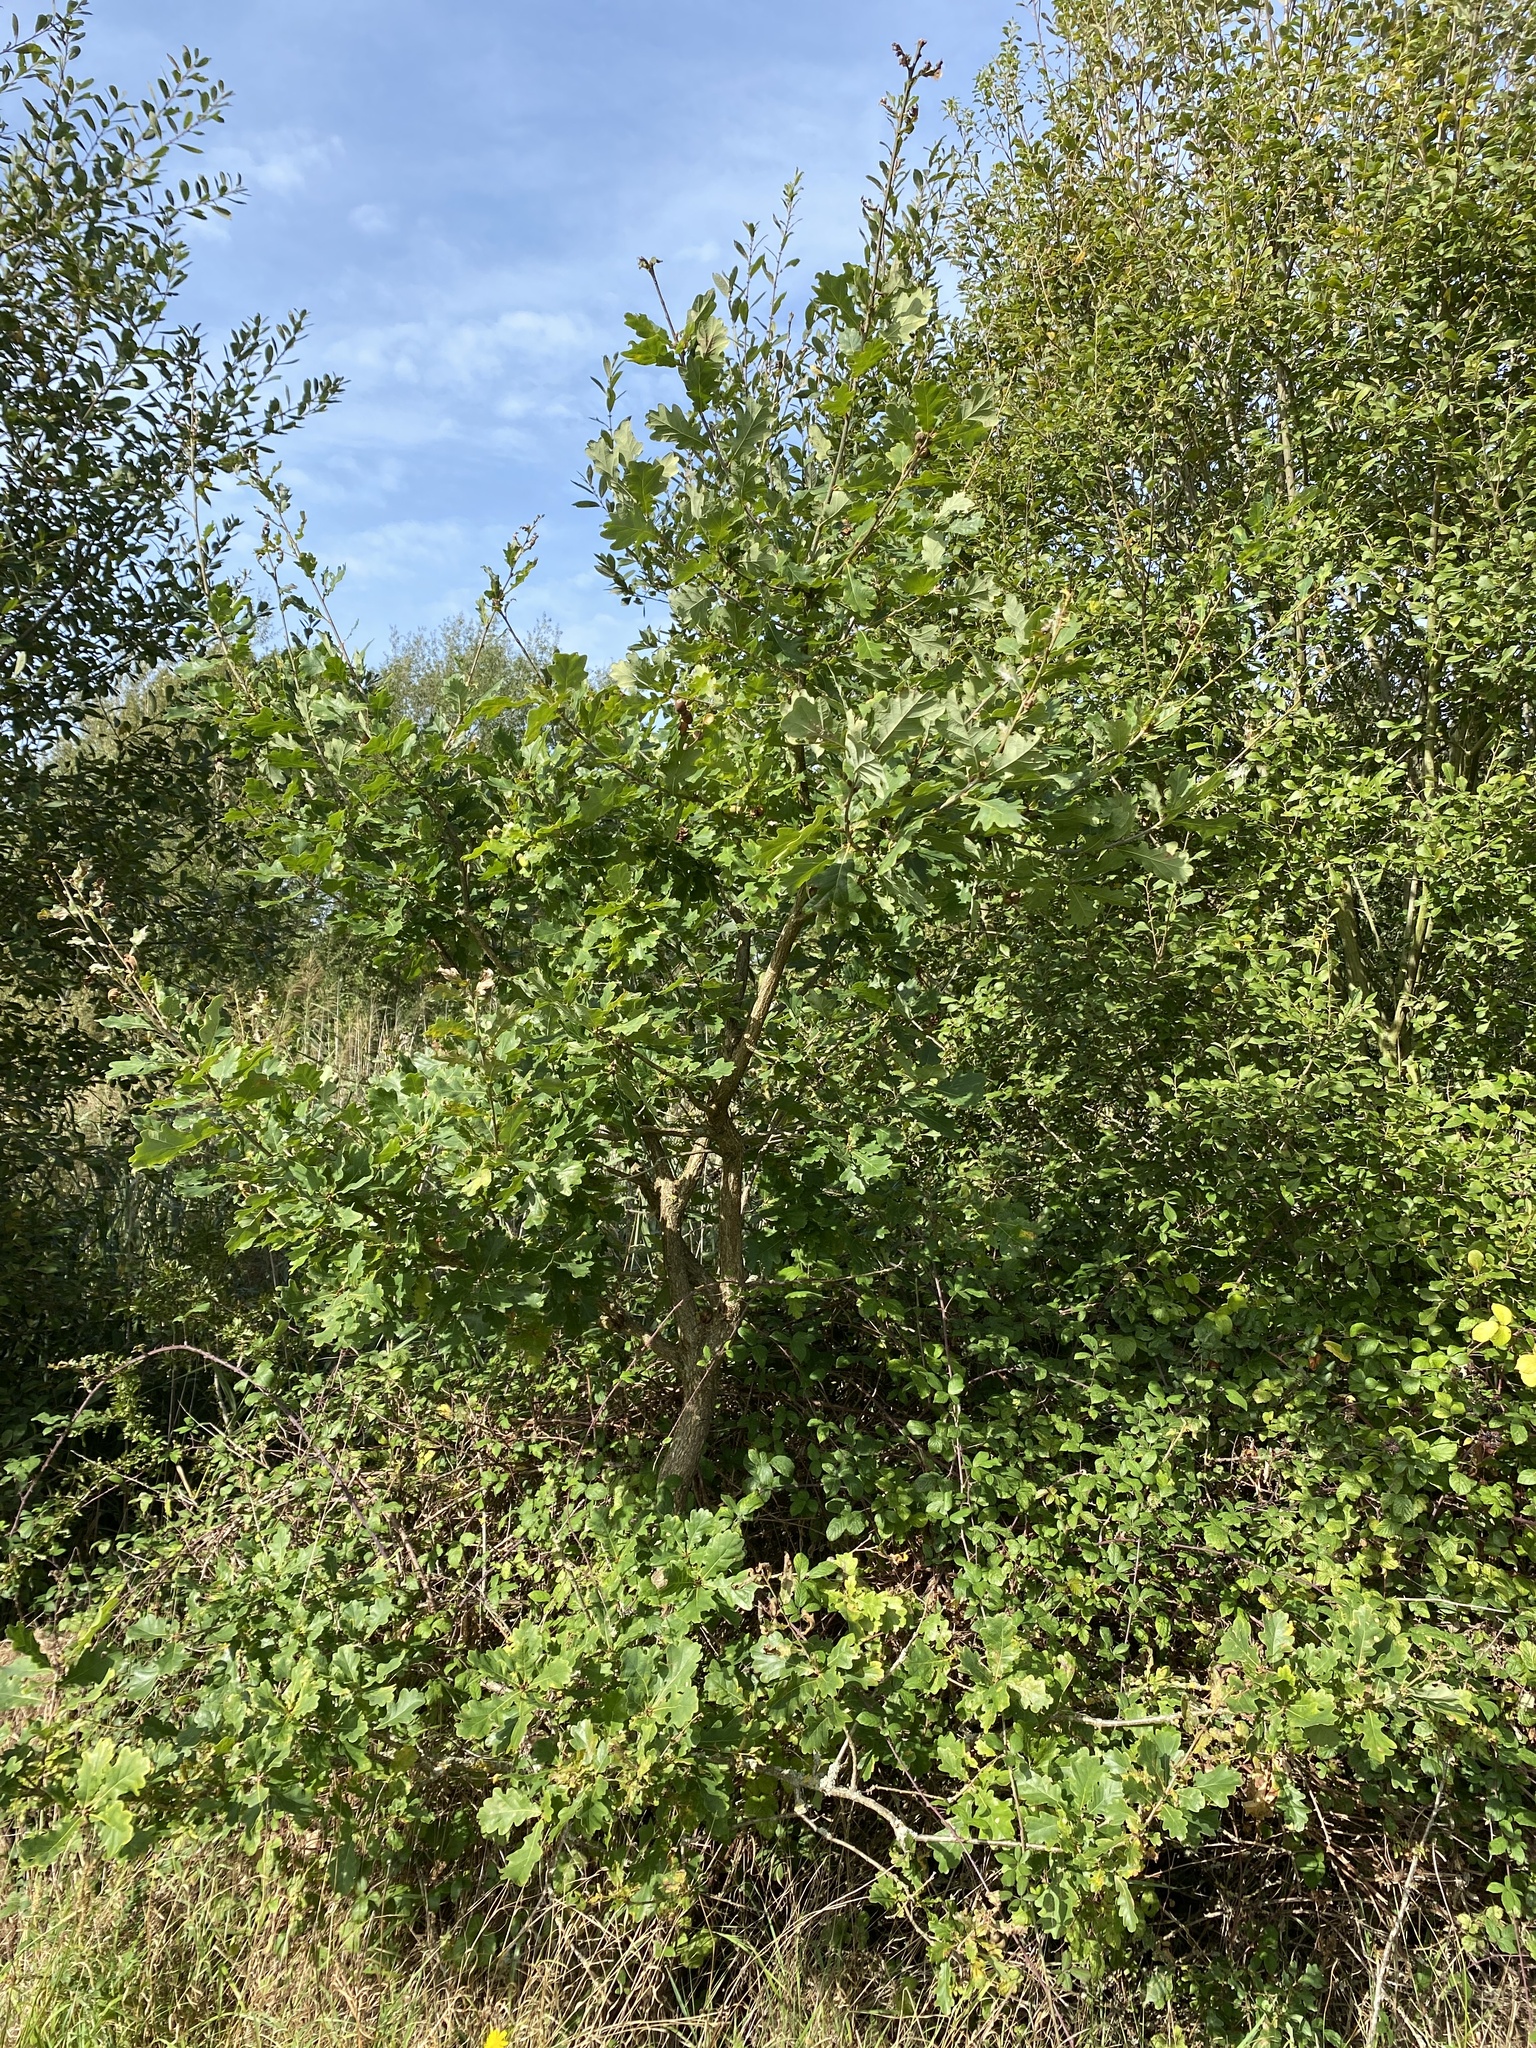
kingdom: Plantae
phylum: Tracheophyta
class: Magnoliopsida
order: Fagales
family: Fagaceae
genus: Quercus
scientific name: Quercus robur
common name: Pedunculate oak
